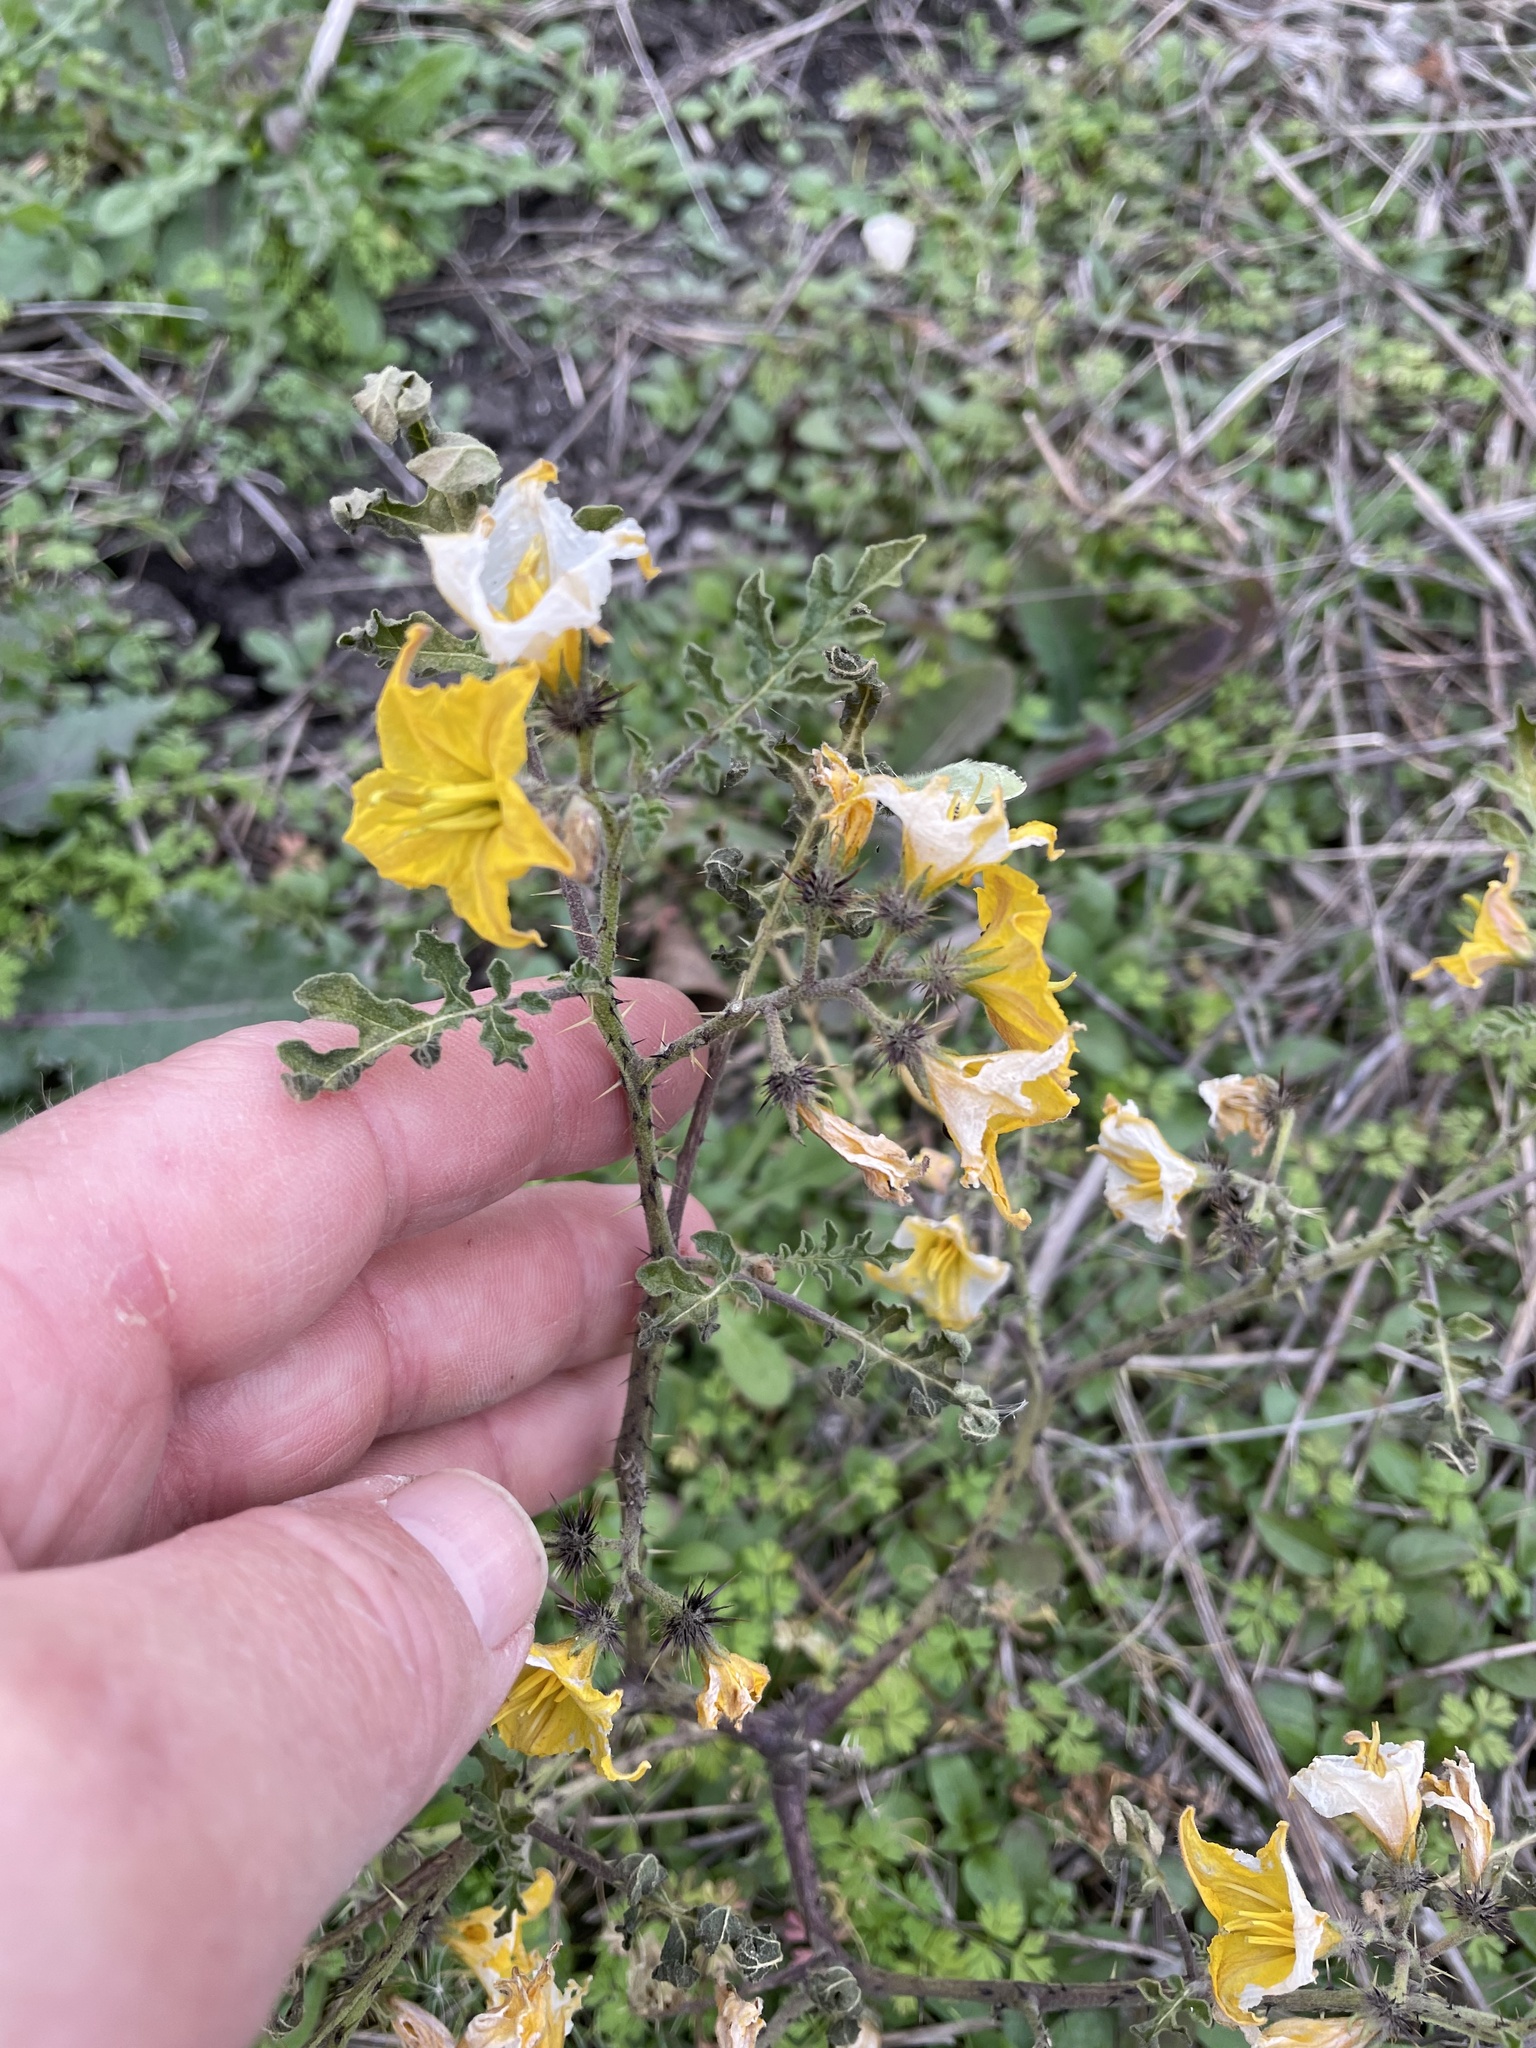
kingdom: Plantae
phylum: Tracheophyta
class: Magnoliopsida
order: Solanales
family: Solanaceae
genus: Solanum
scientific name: Solanum angustifolium
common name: Buffalobur nightshade
